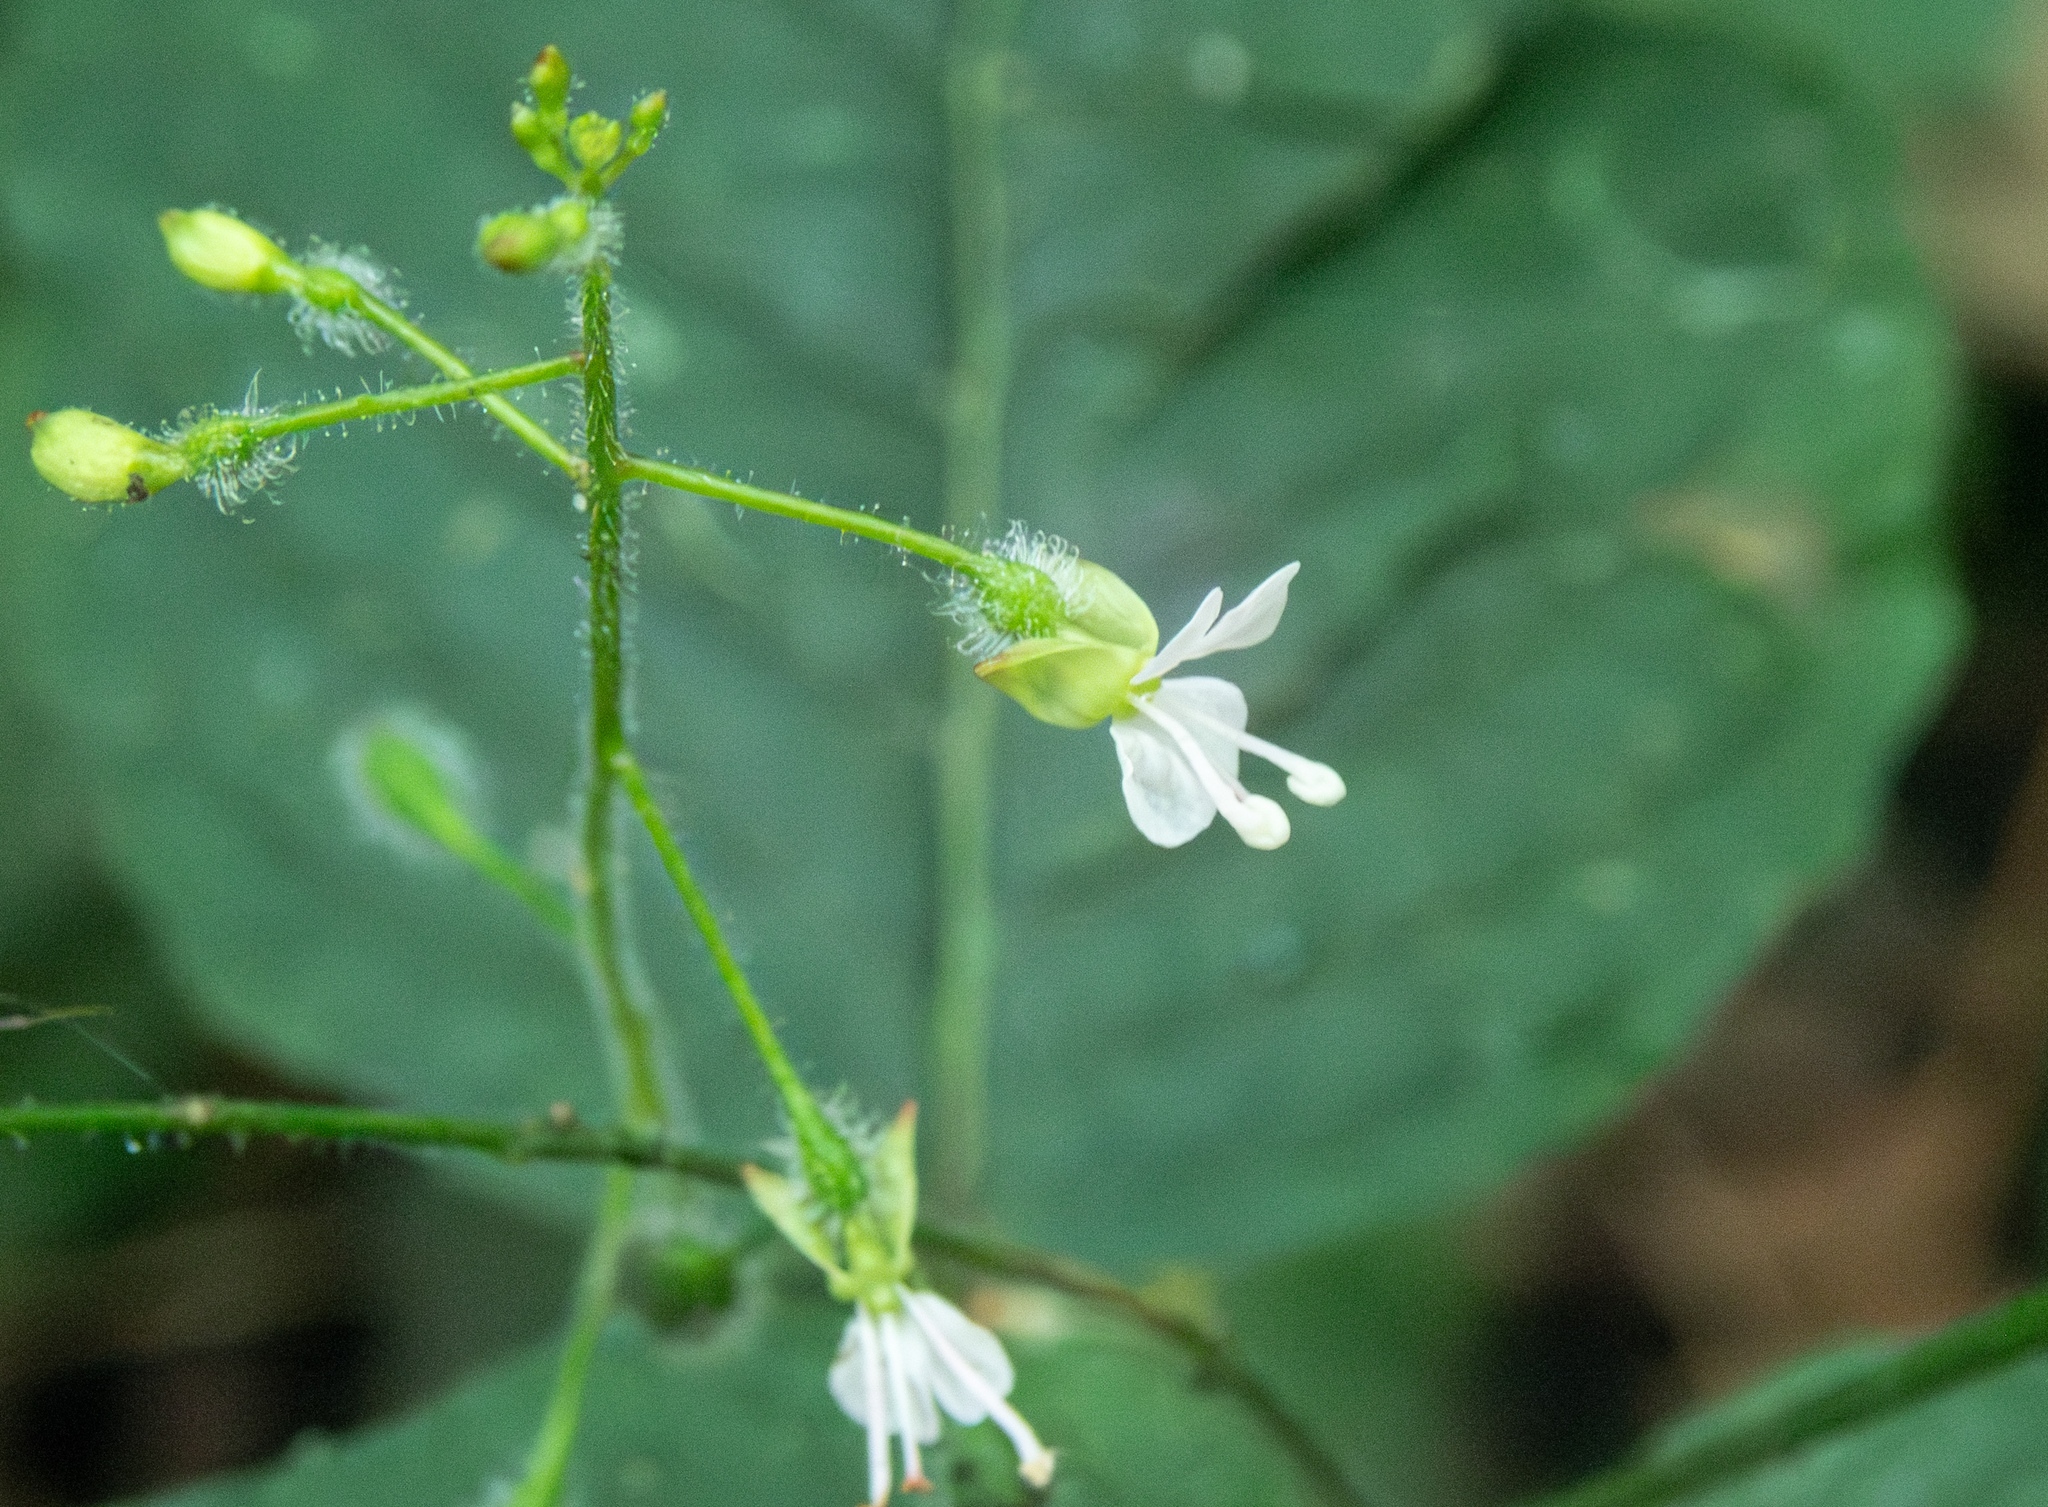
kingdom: Plantae
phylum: Tracheophyta
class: Magnoliopsida
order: Myrtales
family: Onagraceae
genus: Circaea
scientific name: Circaea lutetiana
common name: Enchanter's-nightshade
